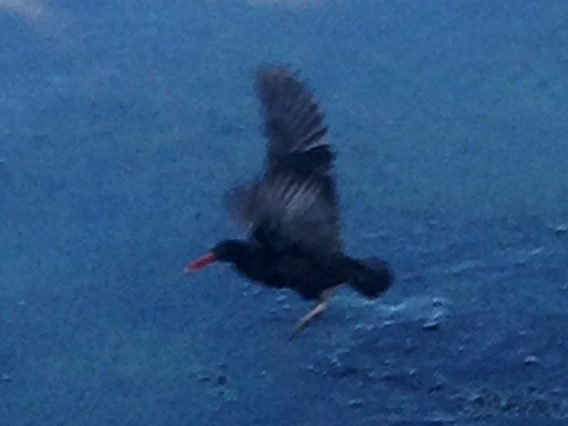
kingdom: Animalia
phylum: Chordata
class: Aves
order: Charadriiformes
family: Haematopodidae
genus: Haematopus
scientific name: Haematopus bachmani
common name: Black oystercatcher
